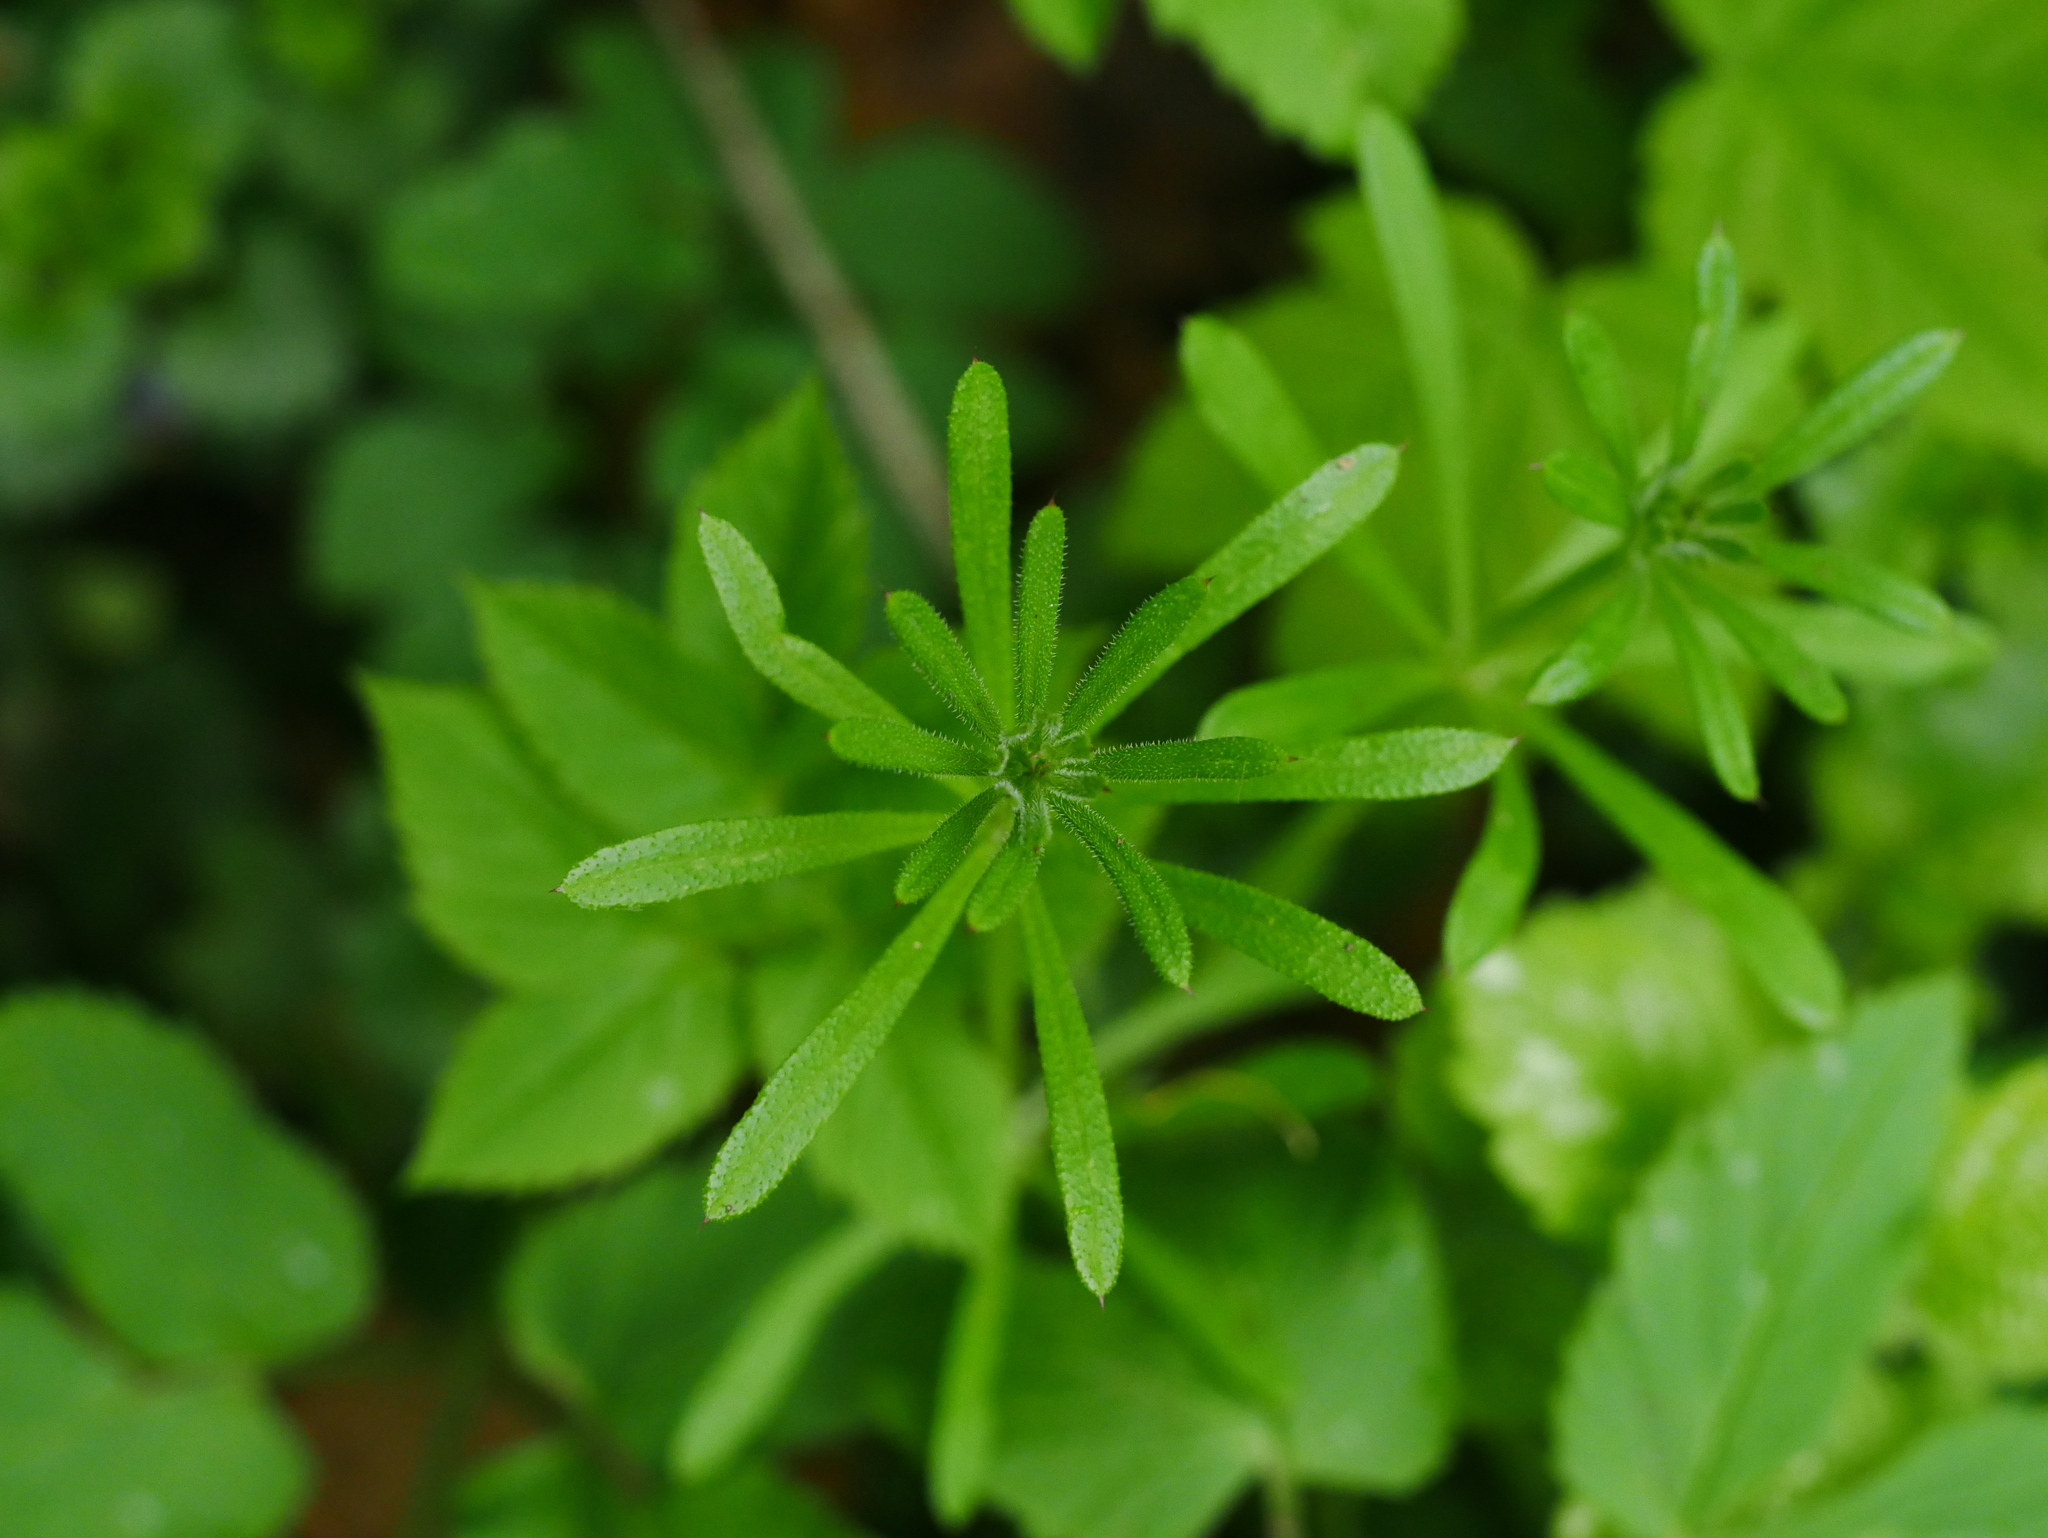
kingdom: Plantae
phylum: Tracheophyta
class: Magnoliopsida
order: Gentianales
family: Rubiaceae
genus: Galium
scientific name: Galium aparine
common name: Cleavers
